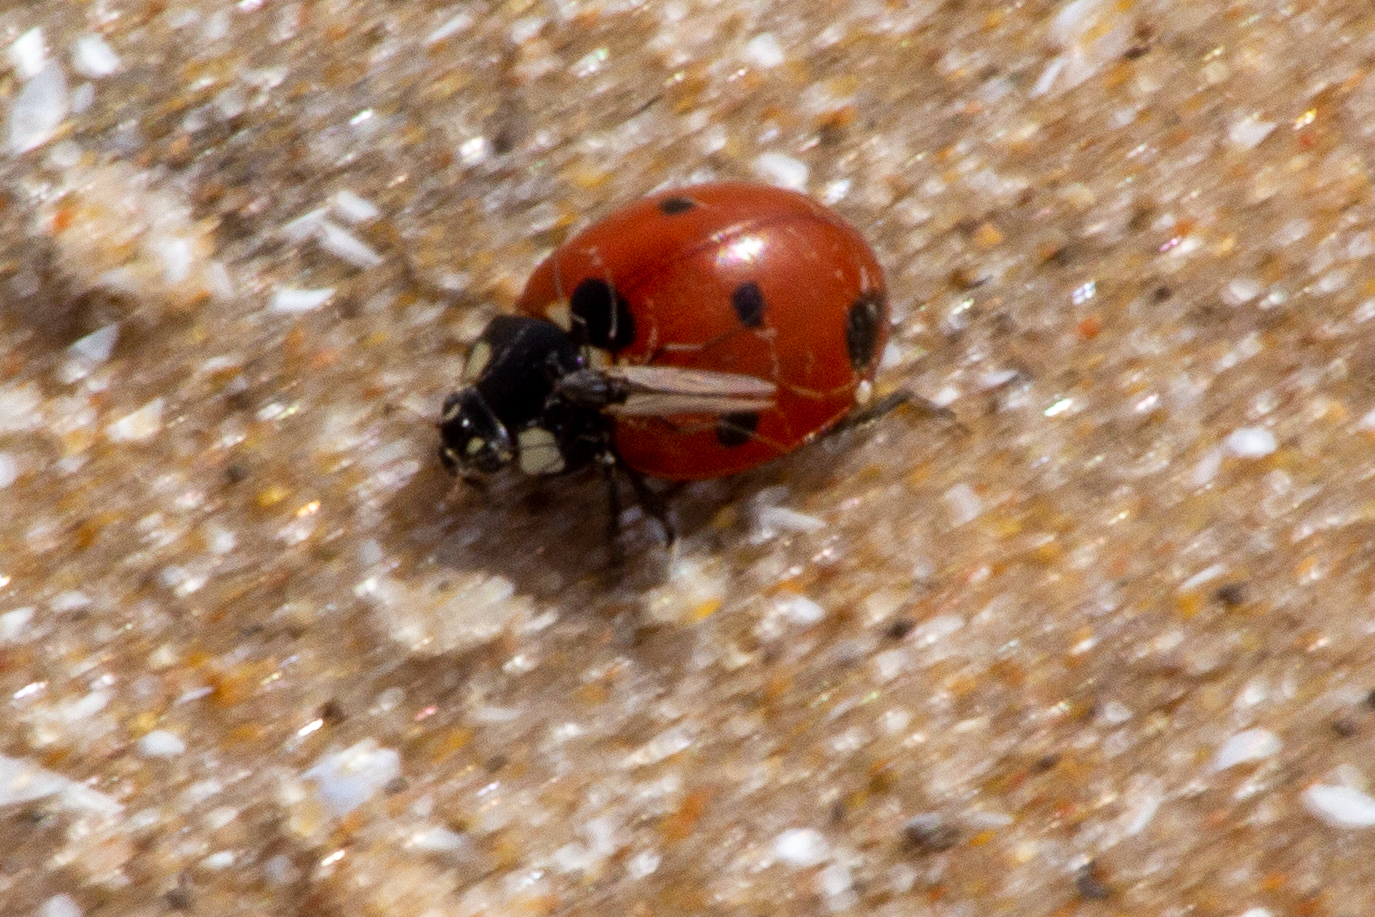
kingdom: Animalia
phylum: Arthropoda
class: Insecta
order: Coleoptera
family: Coccinellidae
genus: Coccinella
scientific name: Coccinella septempunctata
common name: Sevenspotted lady beetle
